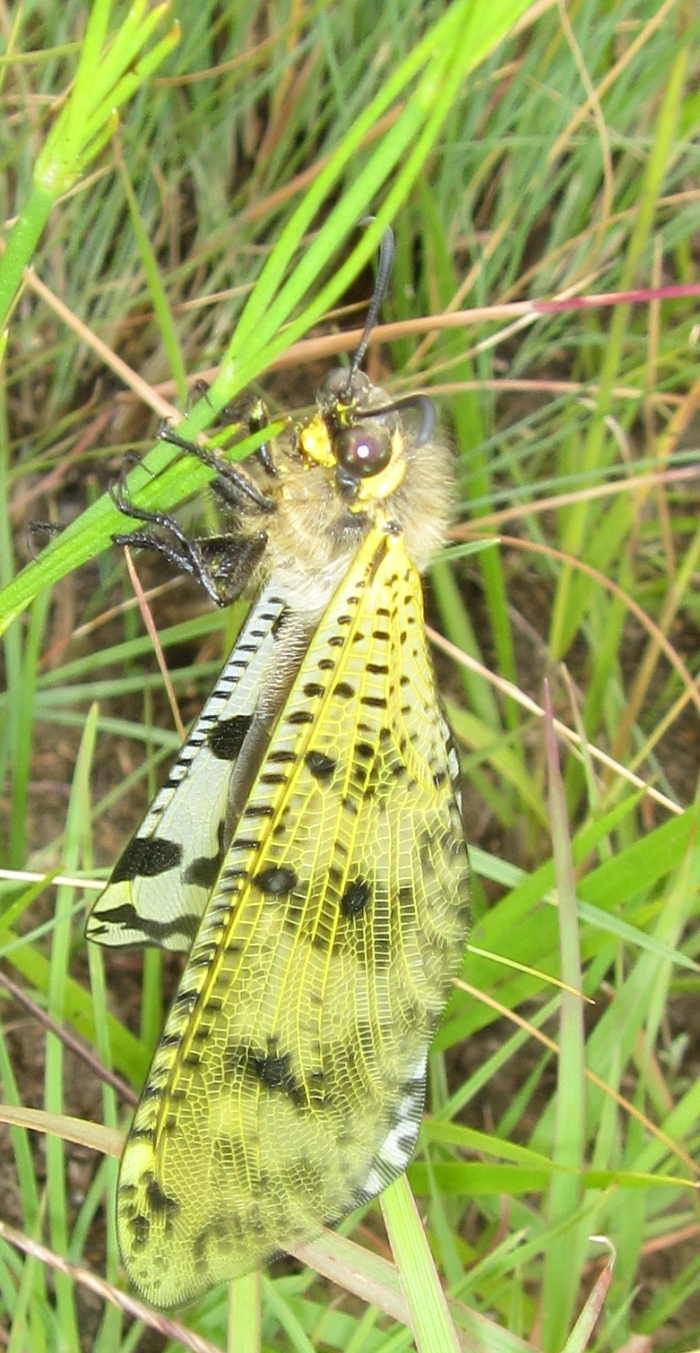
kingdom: Animalia
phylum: Arthropoda
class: Insecta
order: Neuroptera
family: Myrmeleontidae
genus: Palpares
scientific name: Palpares caffer
